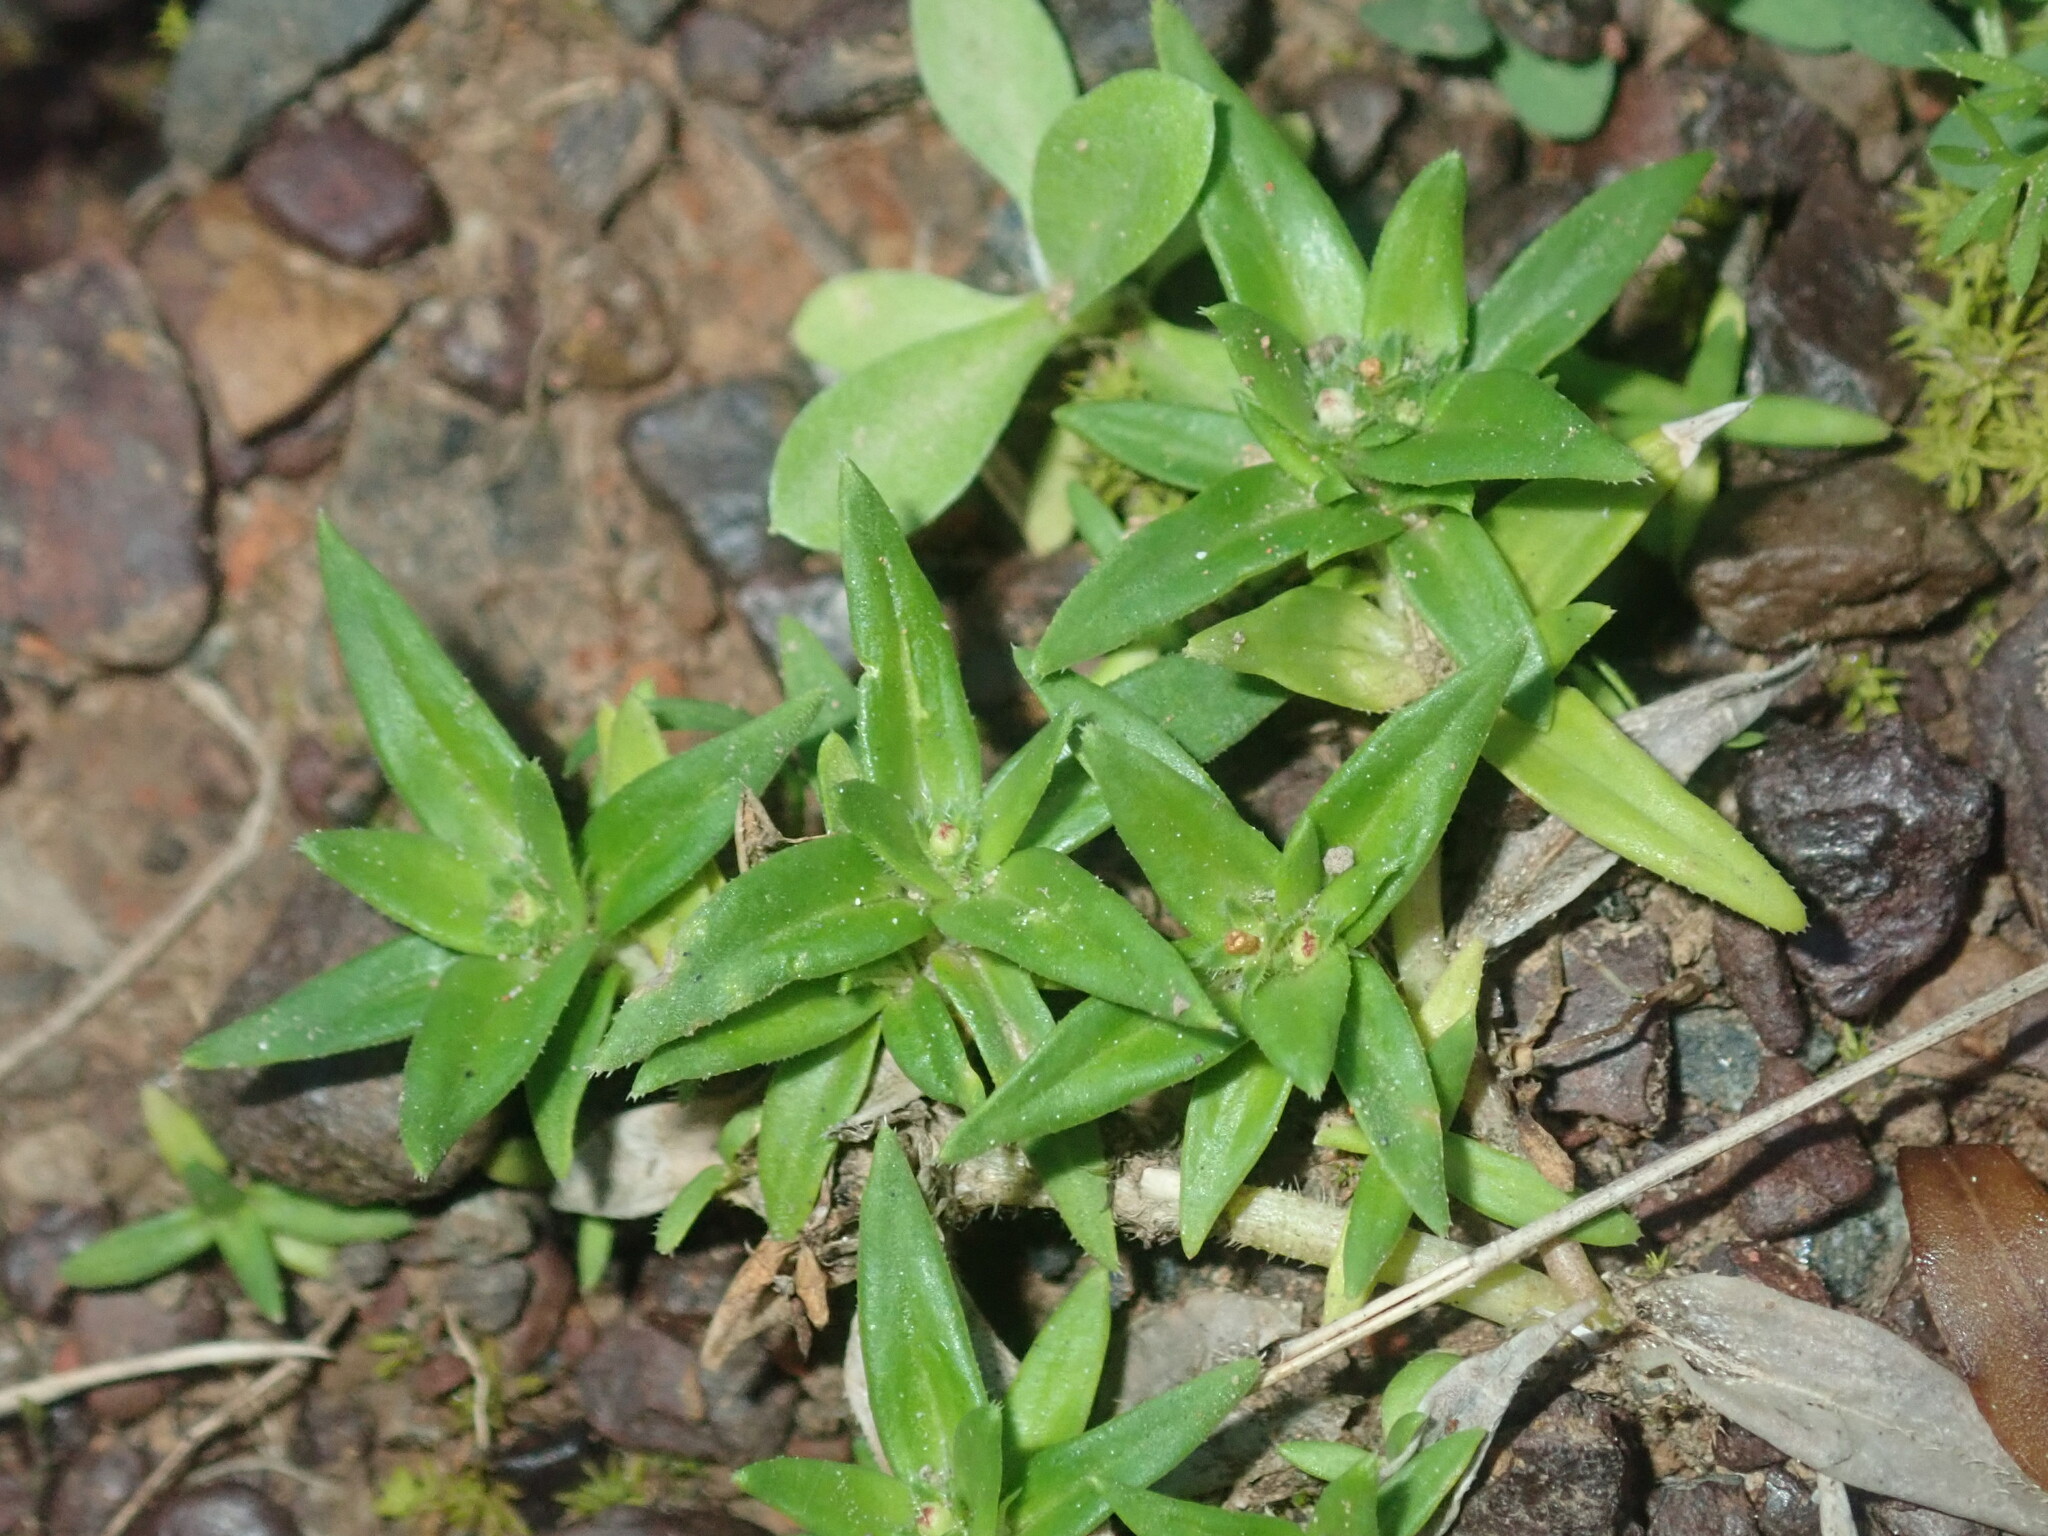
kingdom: Plantae
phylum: Tracheophyta
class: Magnoliopsida
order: Gentianales
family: Rubiaceae
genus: Richardia
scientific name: Richardia stellaris
